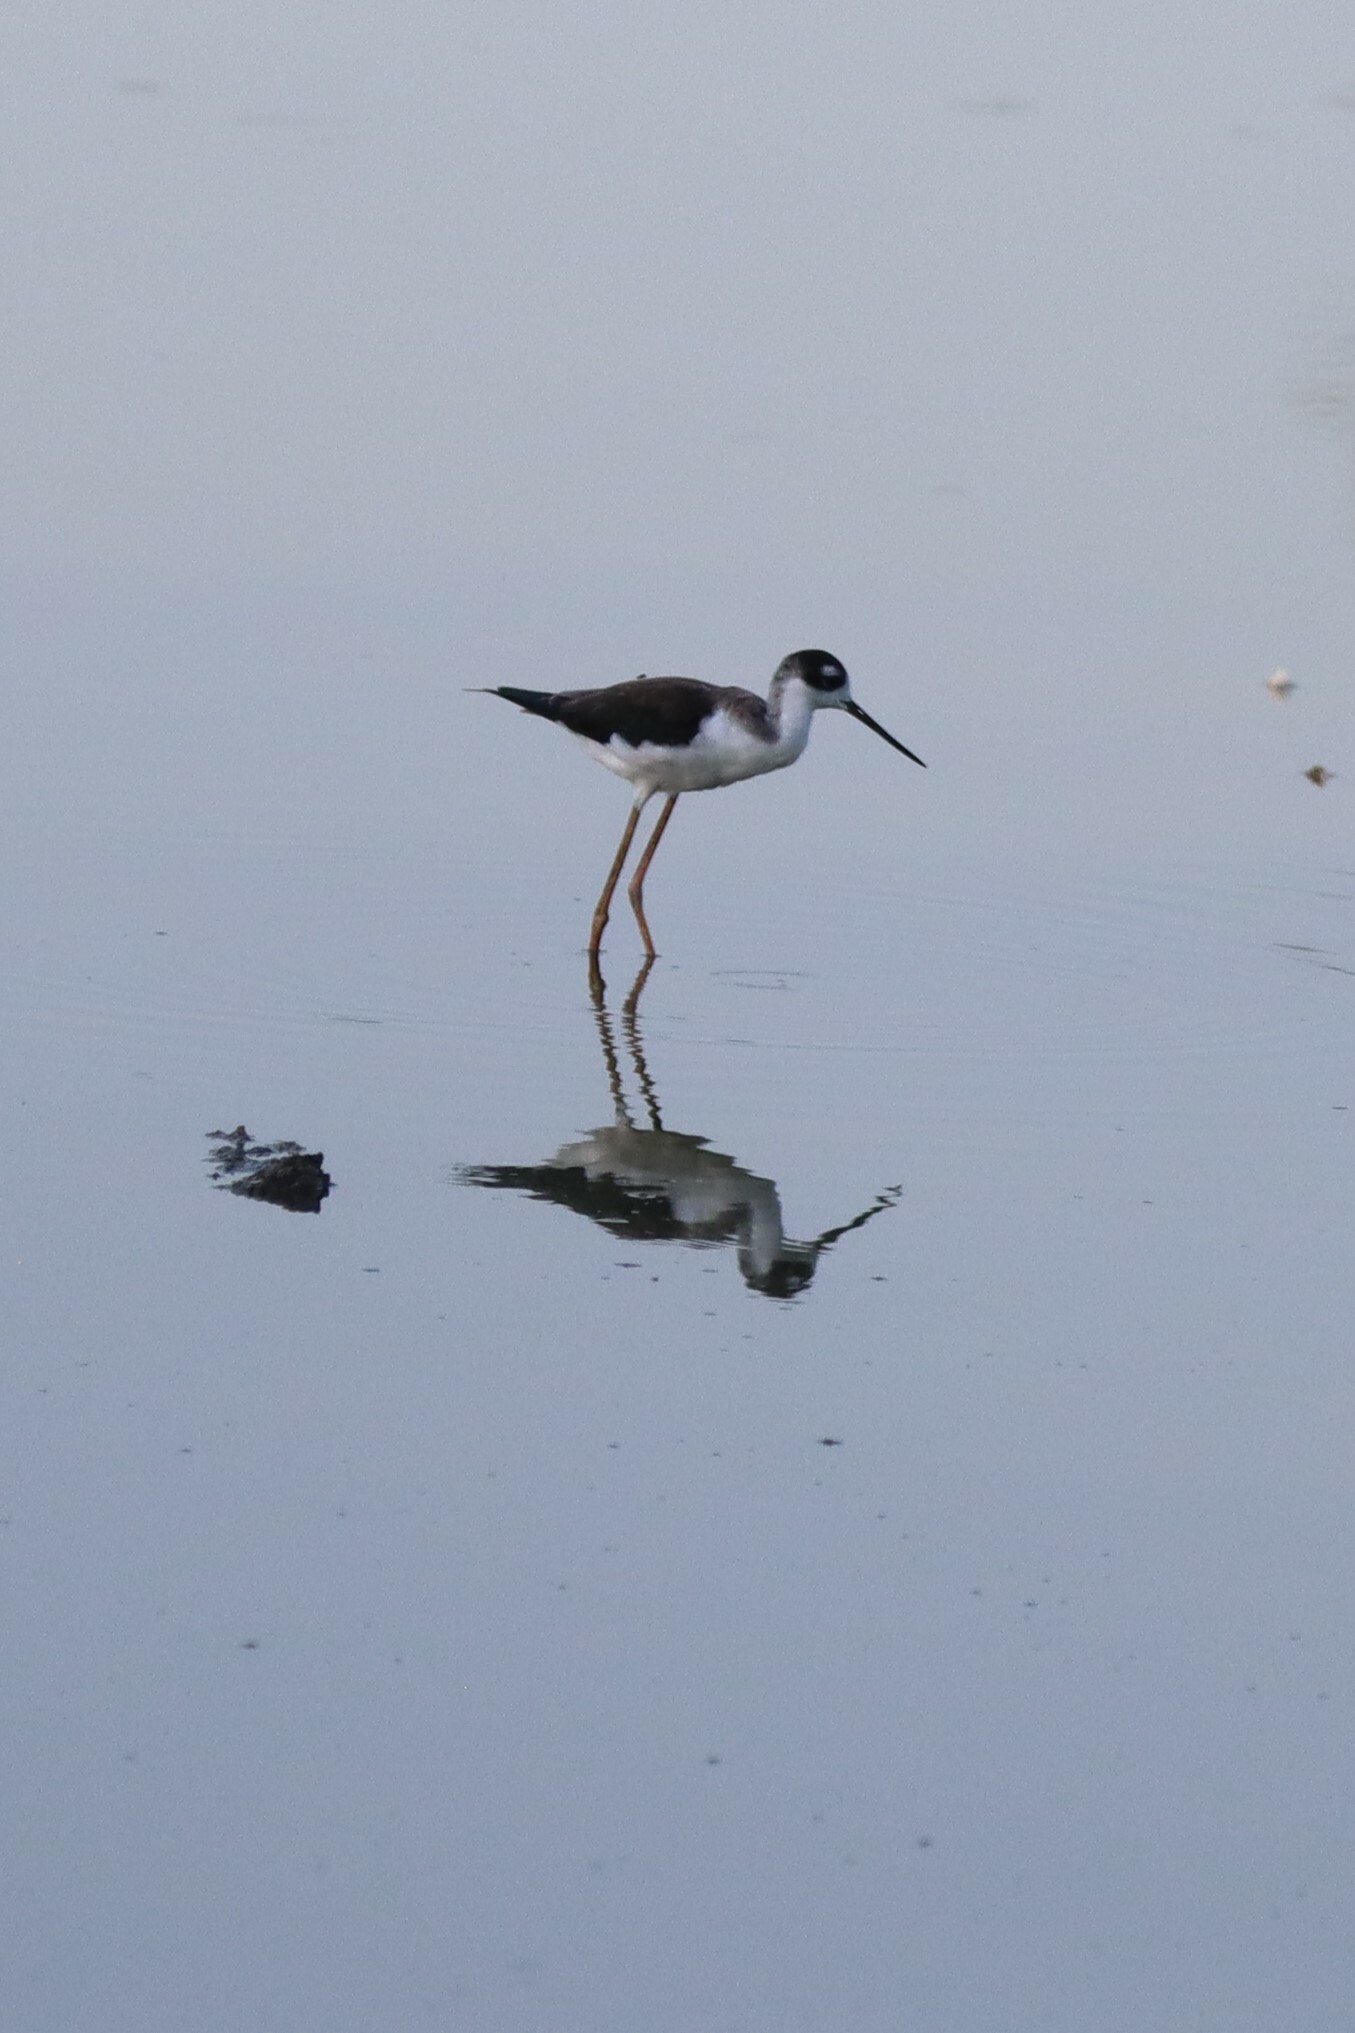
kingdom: Animalia
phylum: Chordata
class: Aves
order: Charadriiformes
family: Recurvirostridae
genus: Himantopus
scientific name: Himantopus mexicanus
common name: Black-necked stilt
